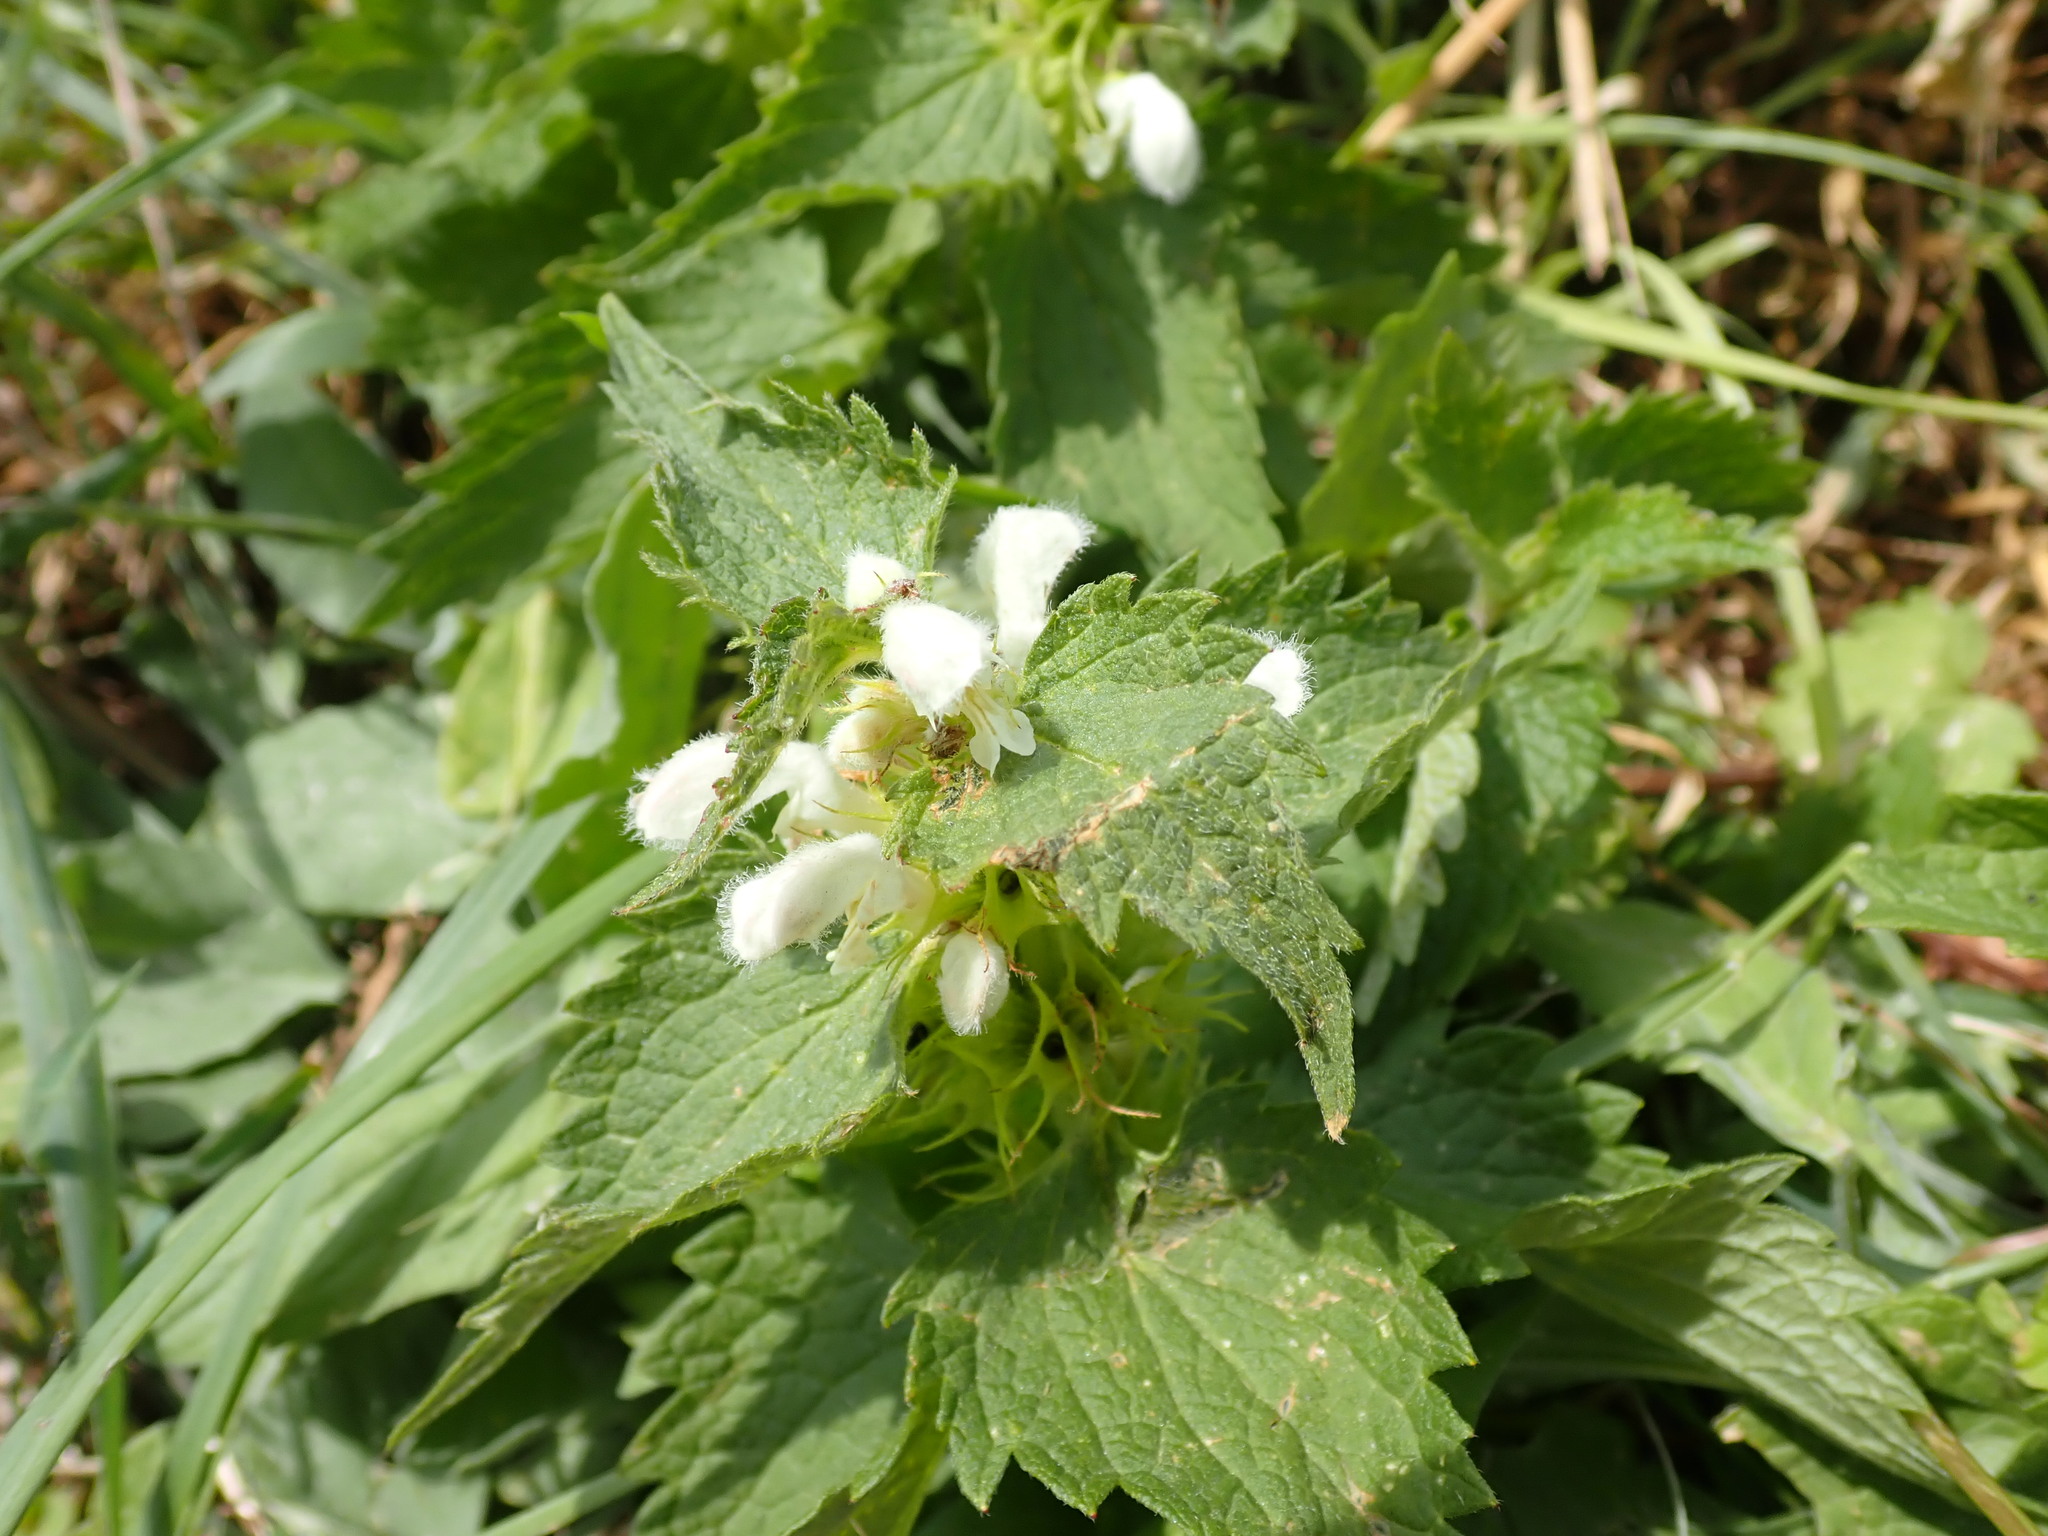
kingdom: Plantae
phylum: Tracheophyta
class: Magnoliopsida
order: Lamiales
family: Lamiaceae
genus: Lamium
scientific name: Lamium album
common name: White dead-nettle
